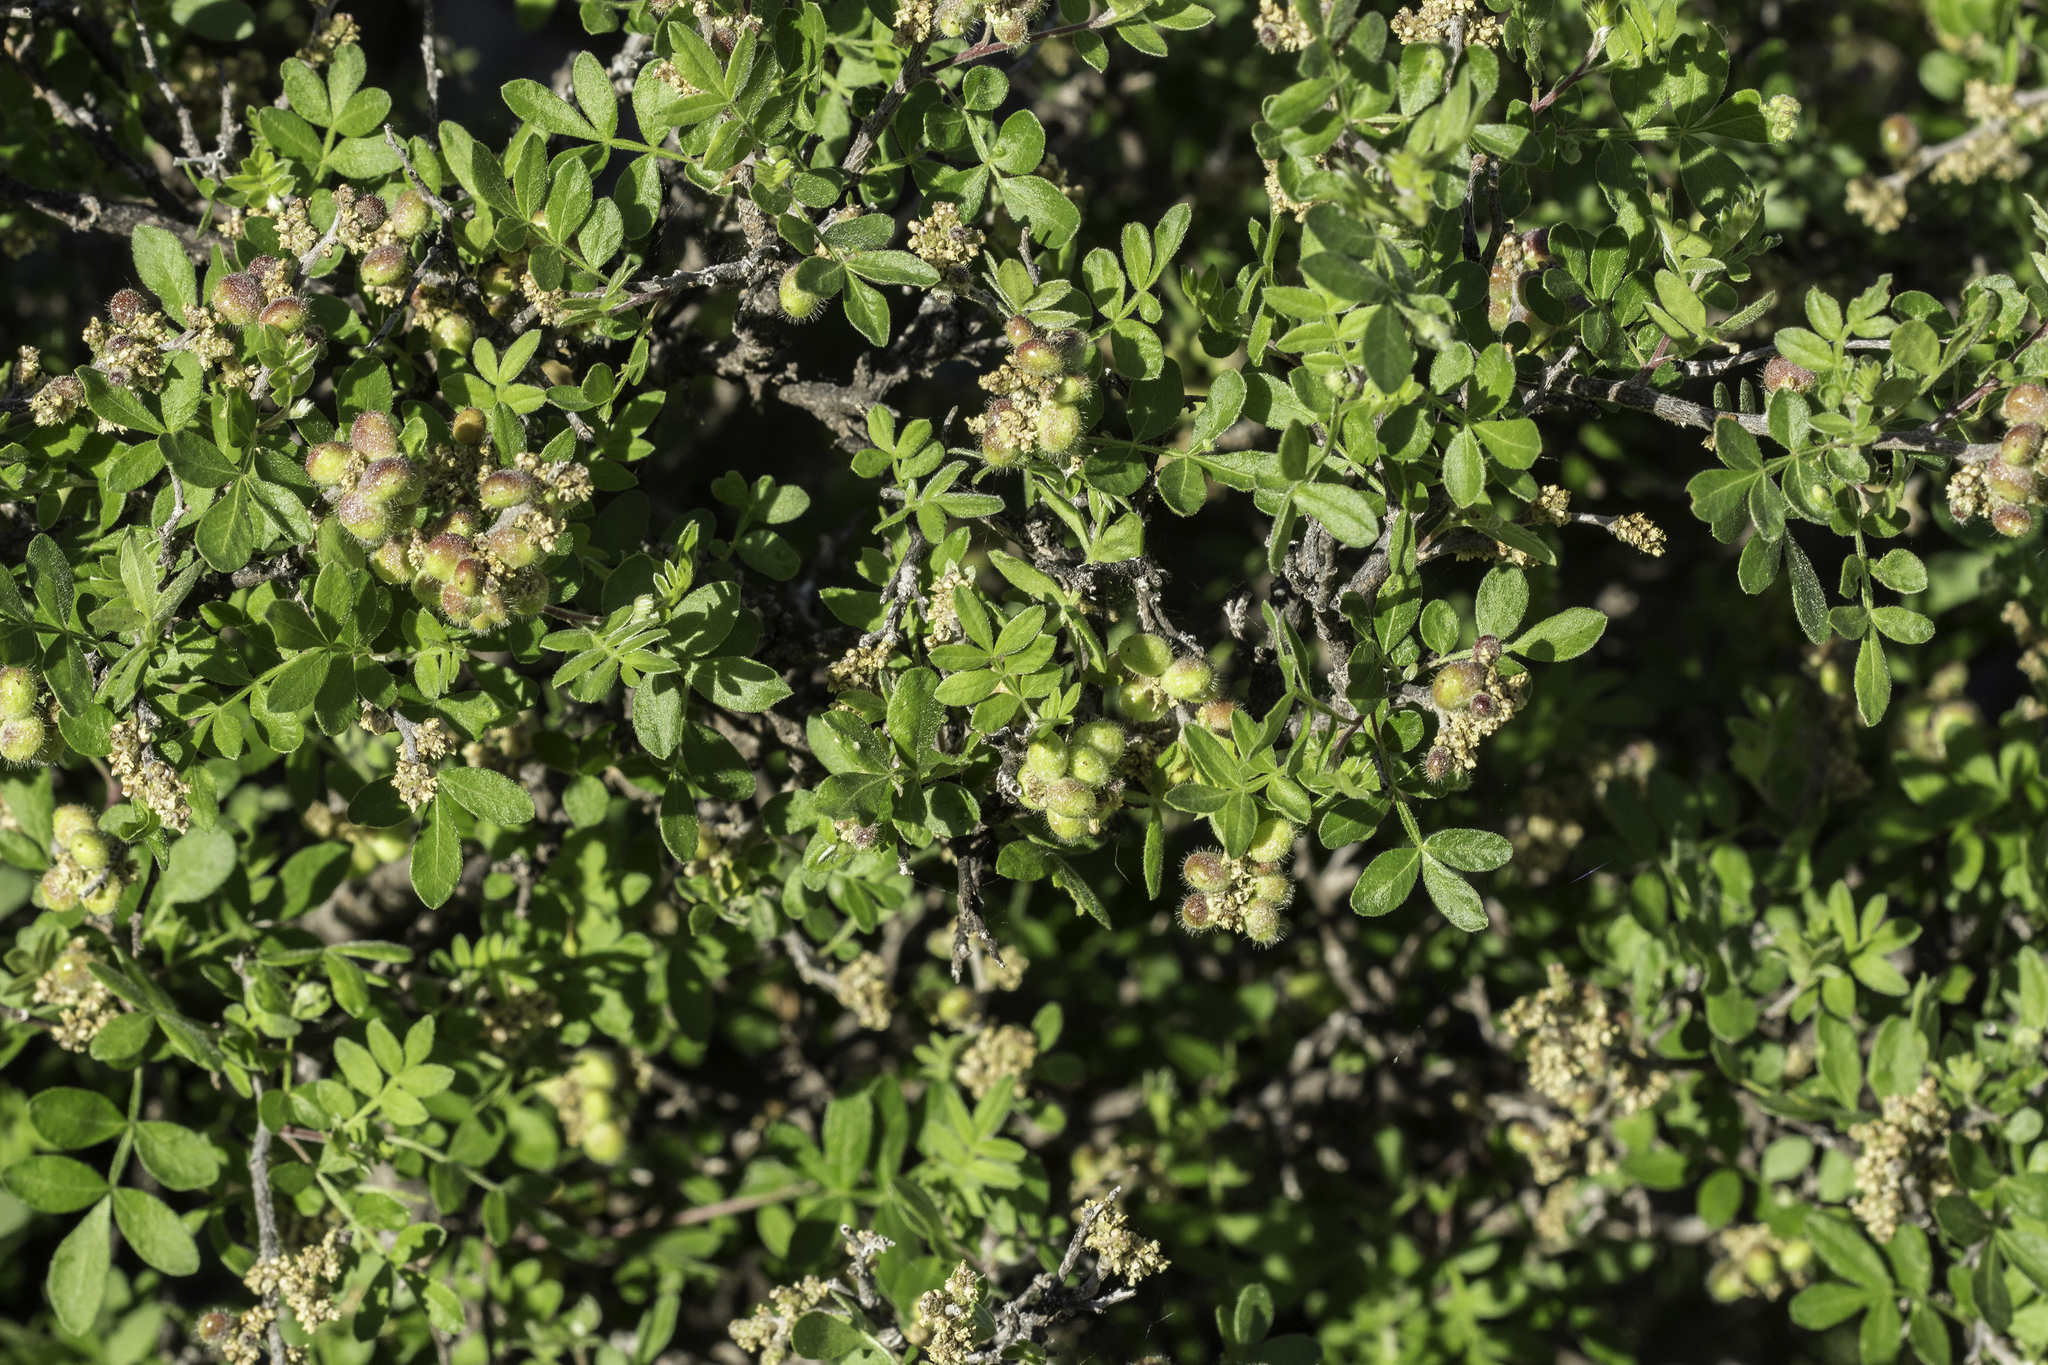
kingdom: Plantae
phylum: Tracheophyta
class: Magnoliopsida
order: Sapindales
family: Anacardiaceae
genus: Rhus
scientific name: Rhus microphylla
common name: Desert sumac
